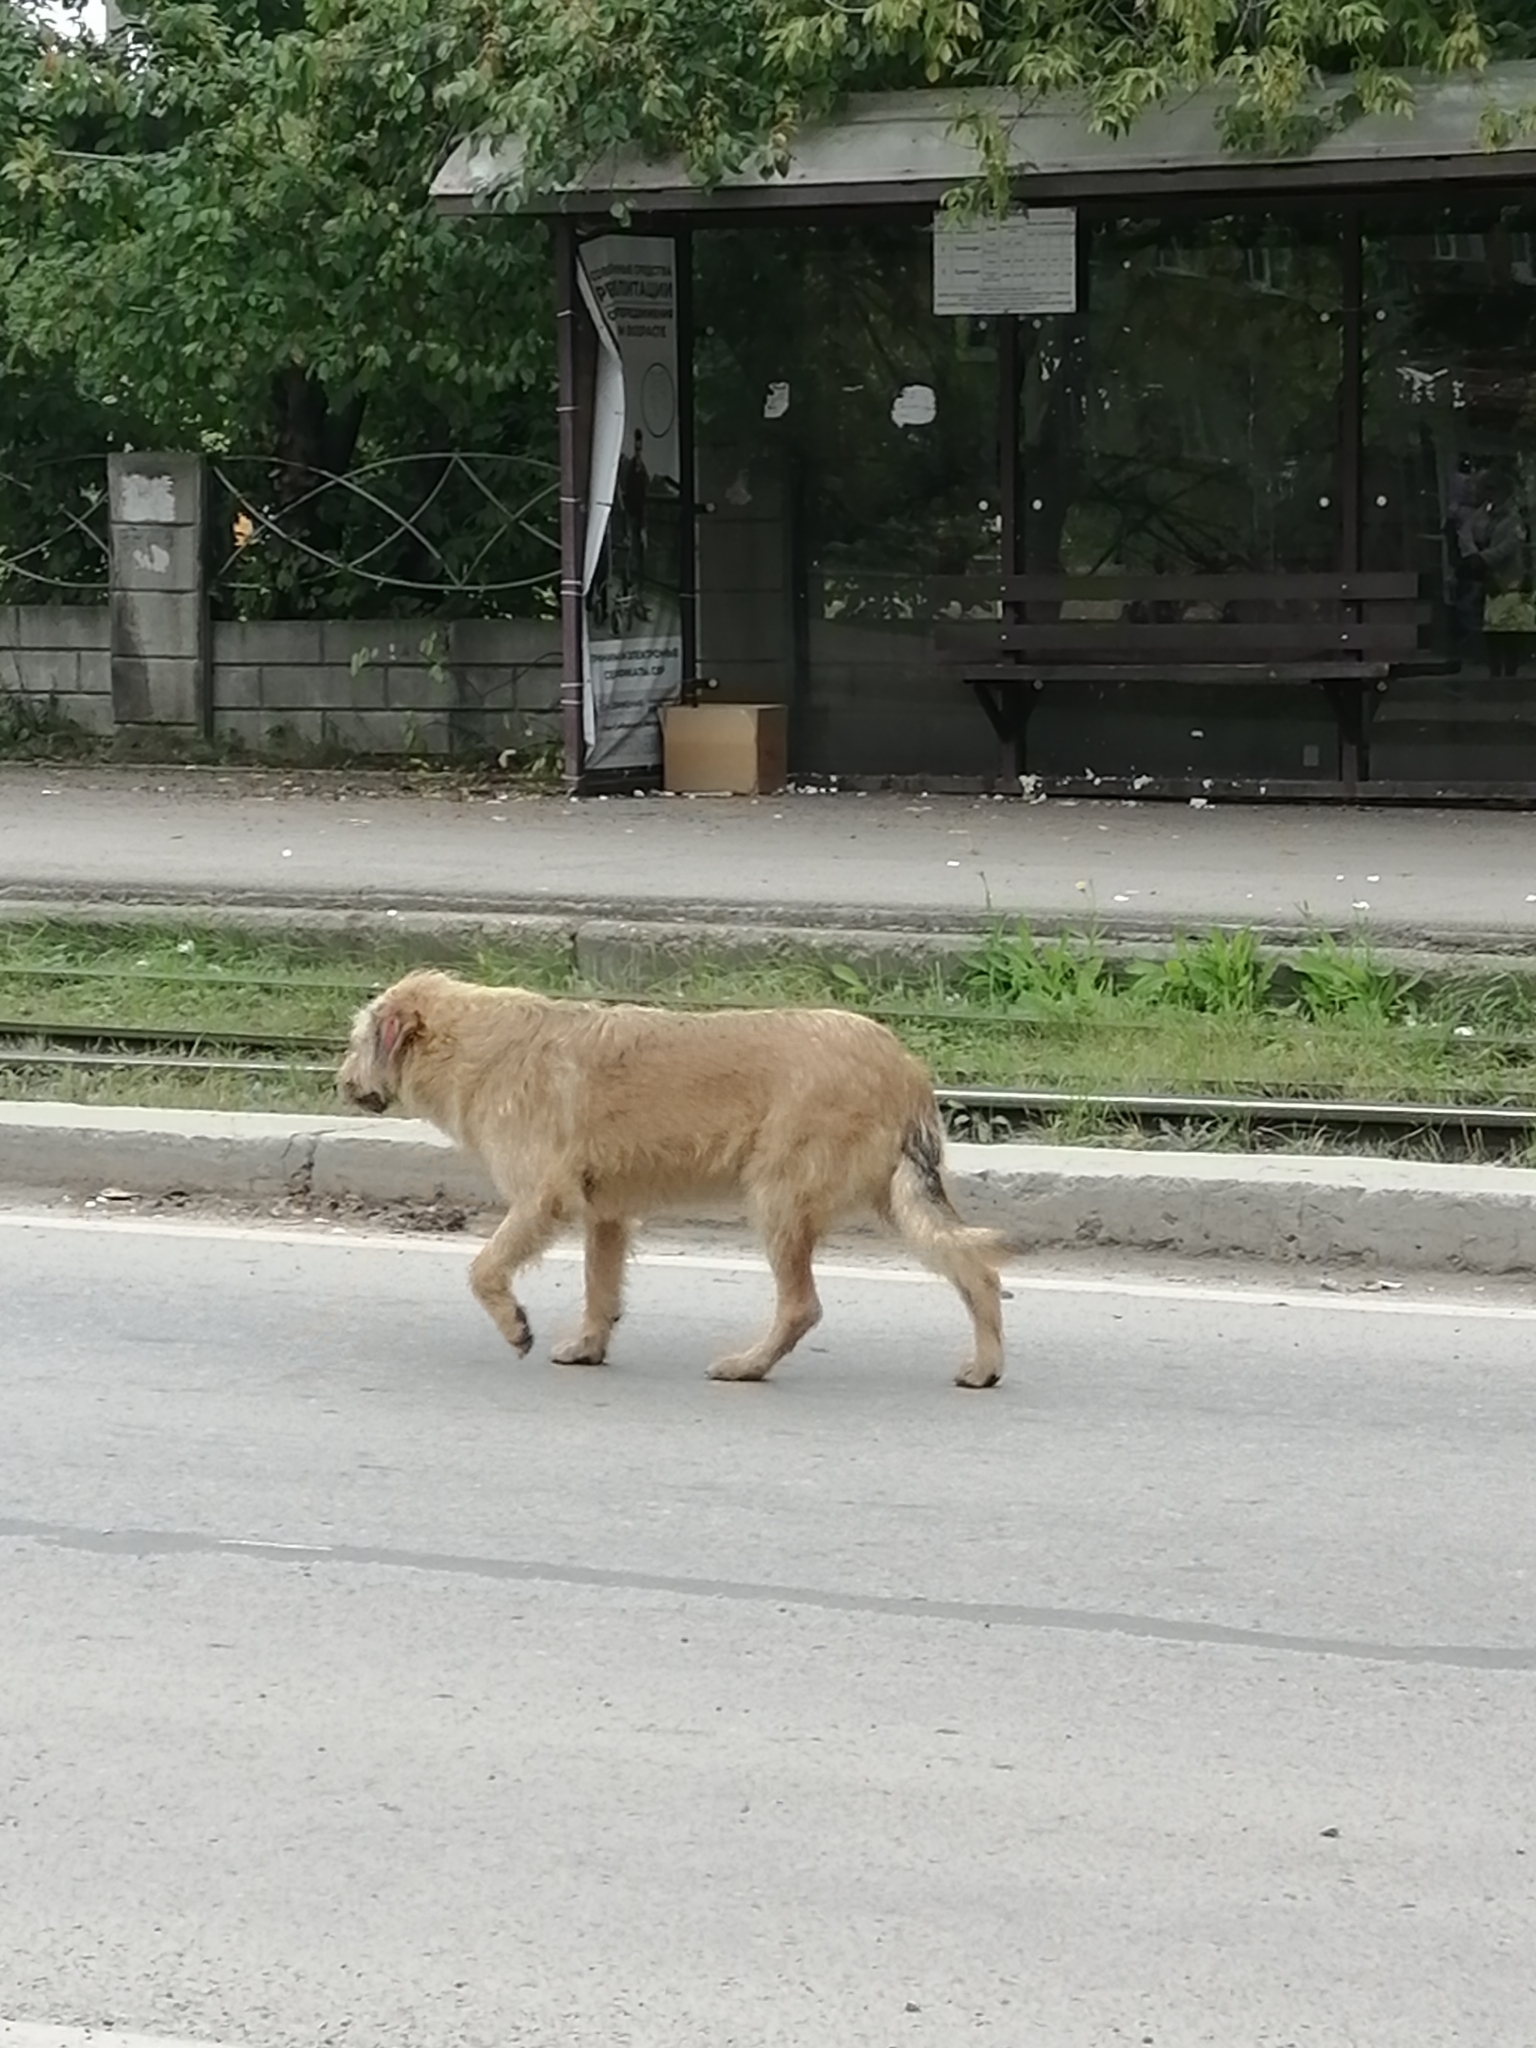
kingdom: Animalia
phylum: Chordata
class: Mammalia
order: Carnivora
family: Canidae
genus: Canis
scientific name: Canis lupus
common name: Gray wolf
